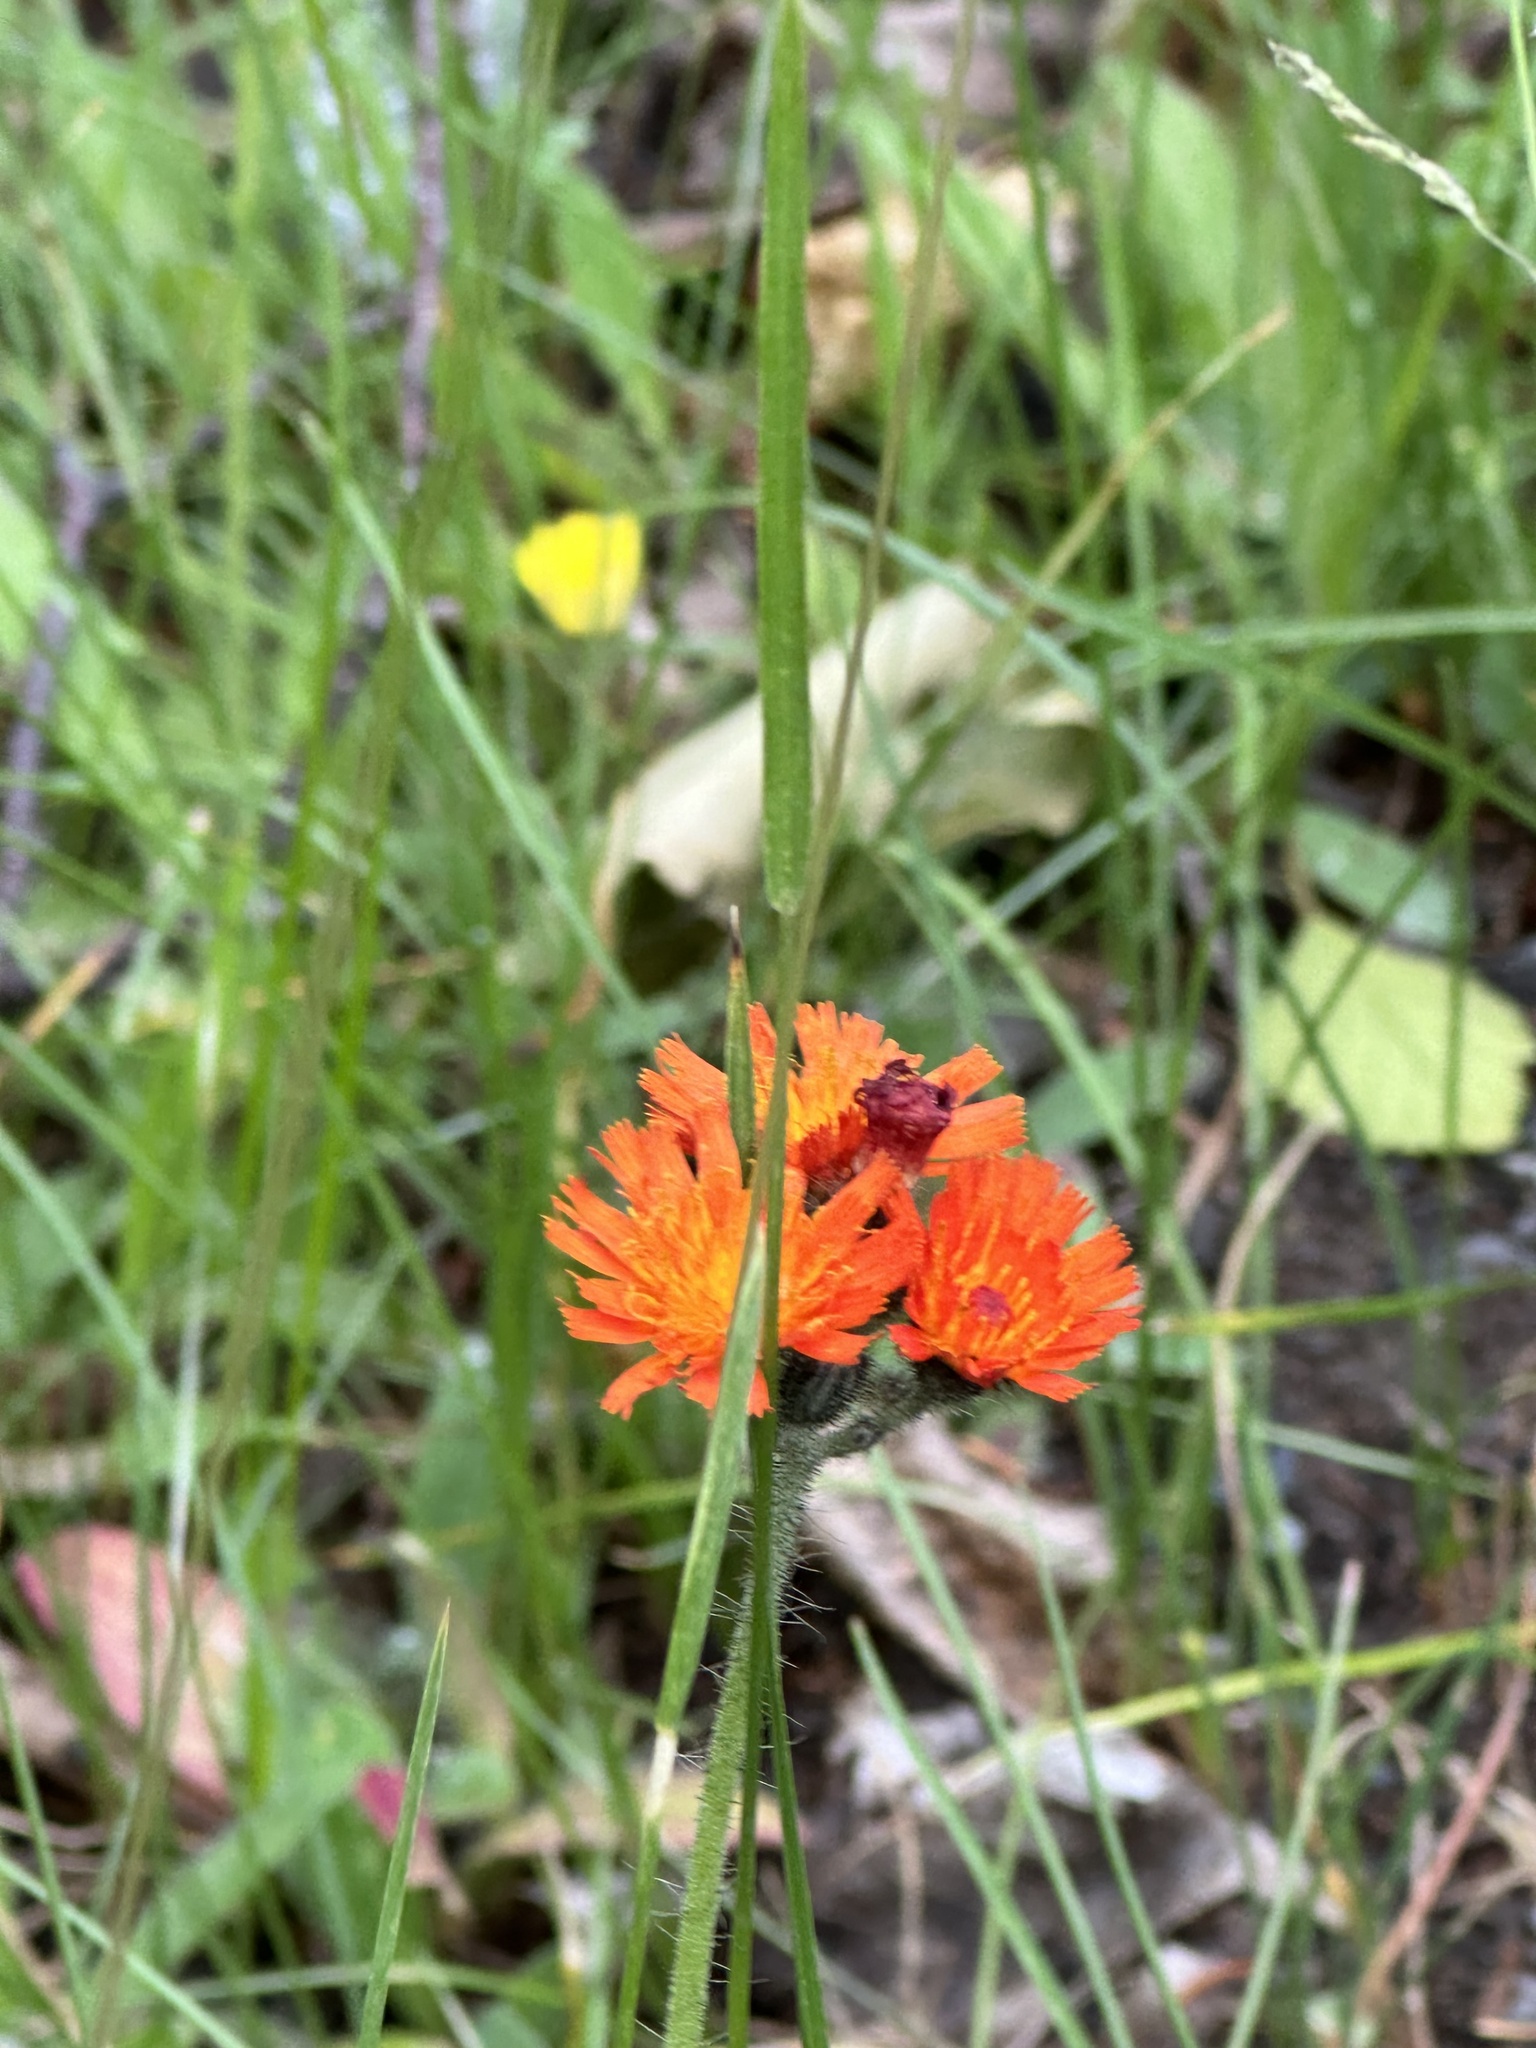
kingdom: Plantae
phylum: Tracheophyta
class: Magnoliopsida
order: Asterales
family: Asteraceae
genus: Pilosella
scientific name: Pilosella aurantiaca
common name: Fox-and-cubs
